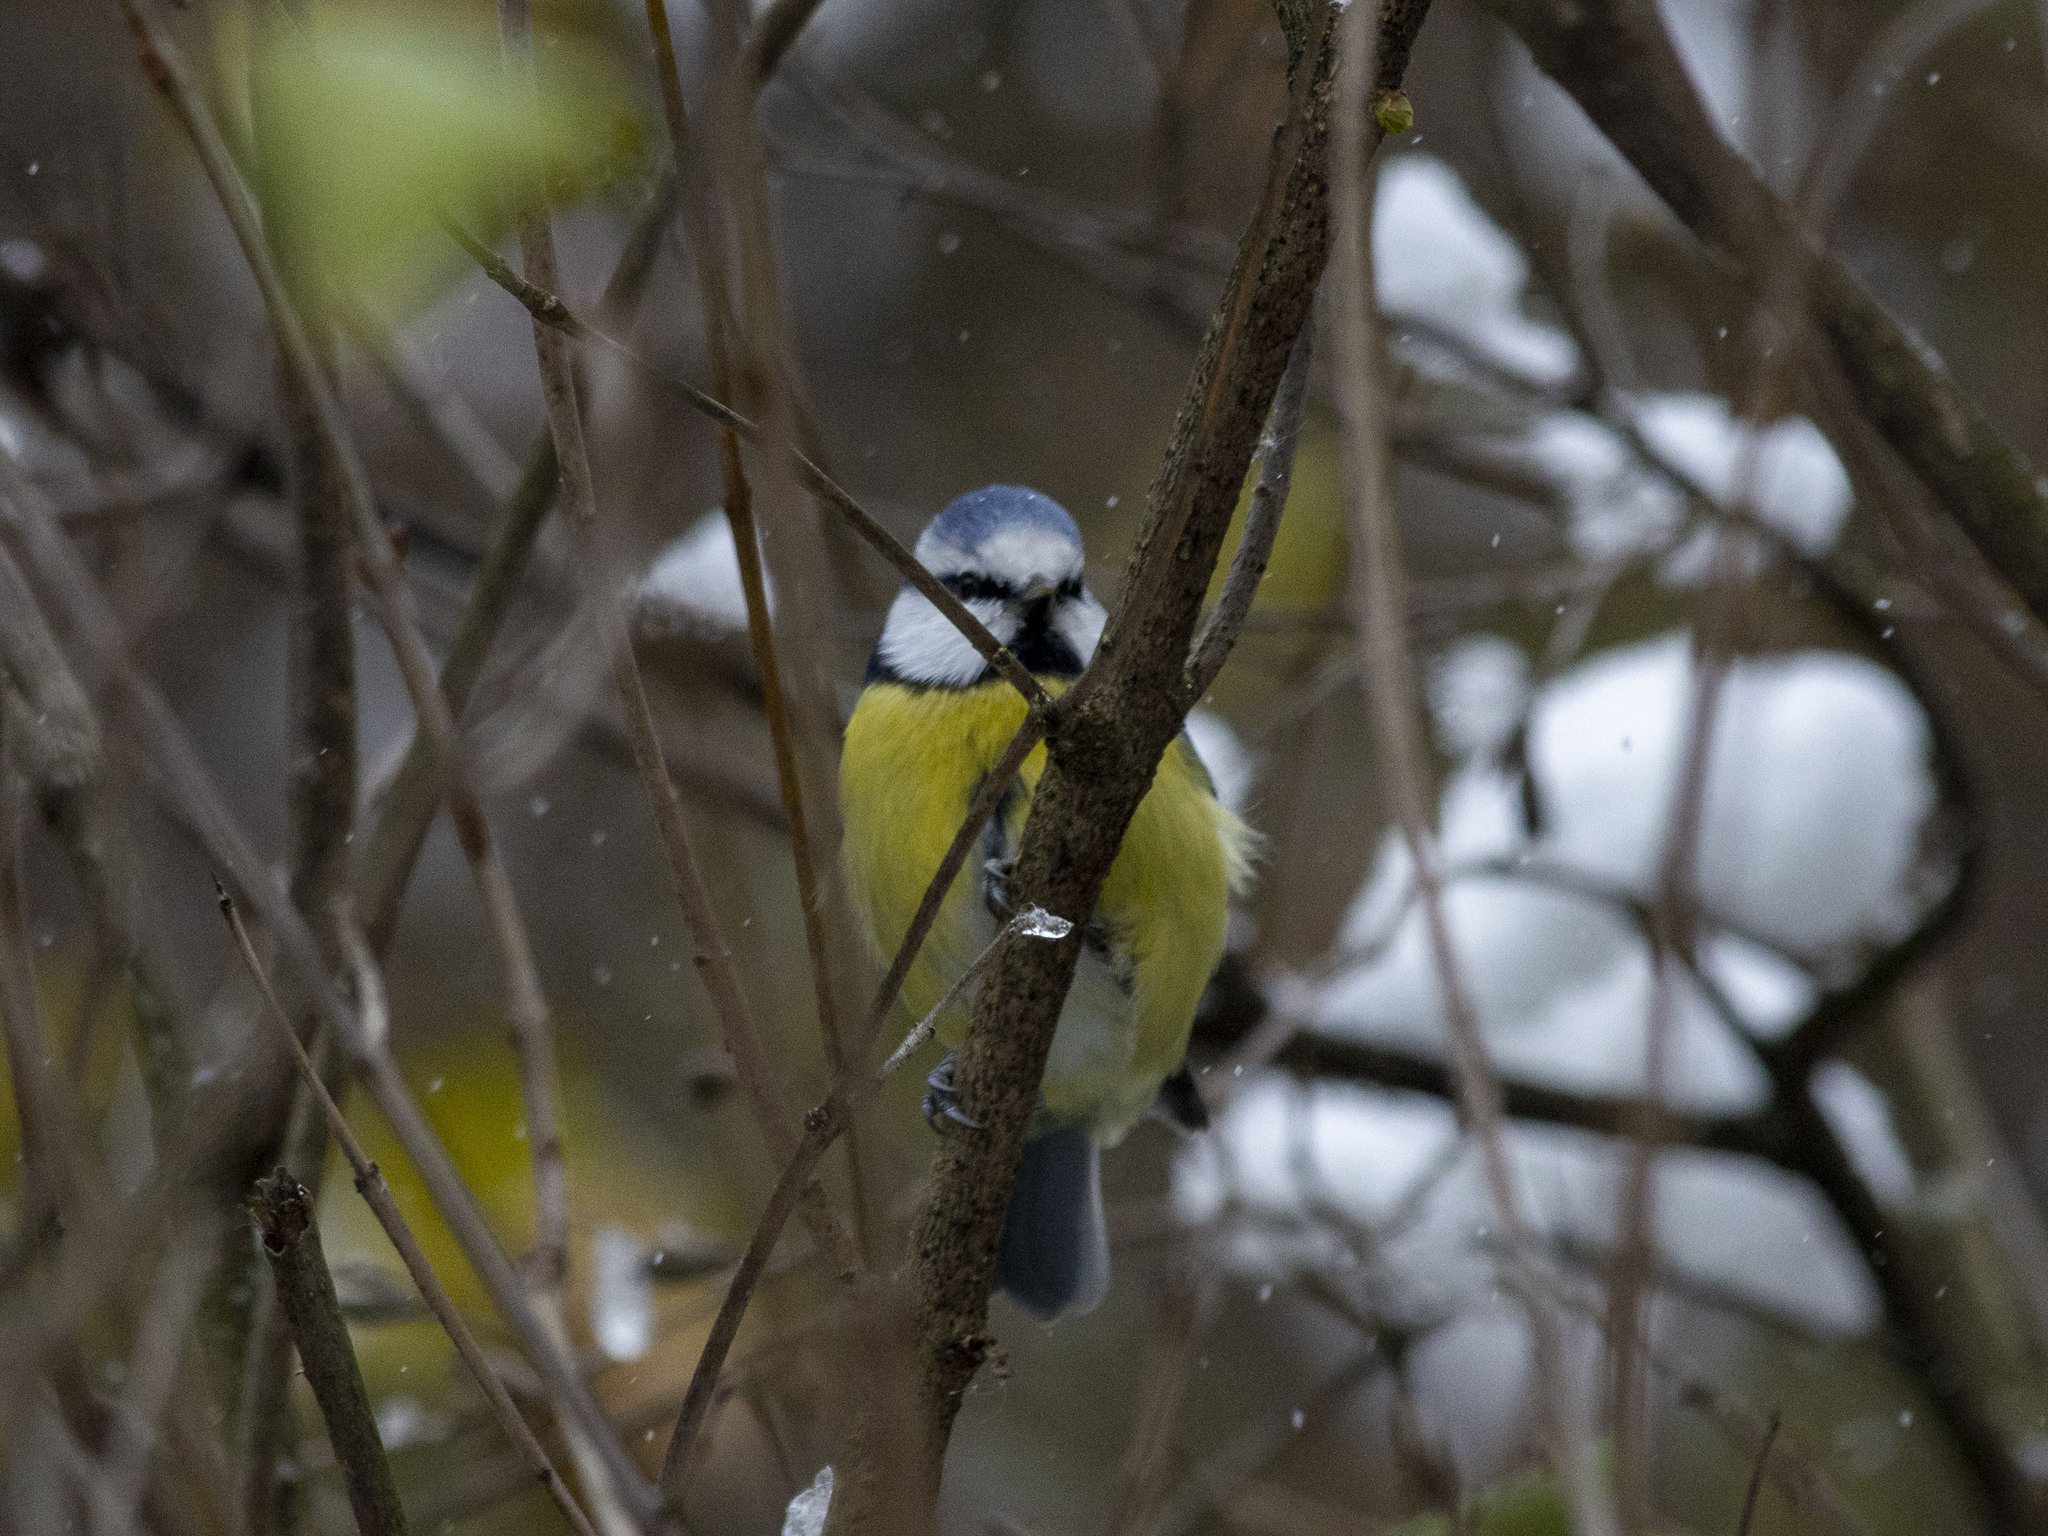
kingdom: Animalia
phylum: Chordata
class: Aves
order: Passeriformes
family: Paridae
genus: Cyanistes
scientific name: Cyanistes caeruleus
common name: Eurasian blue tit
